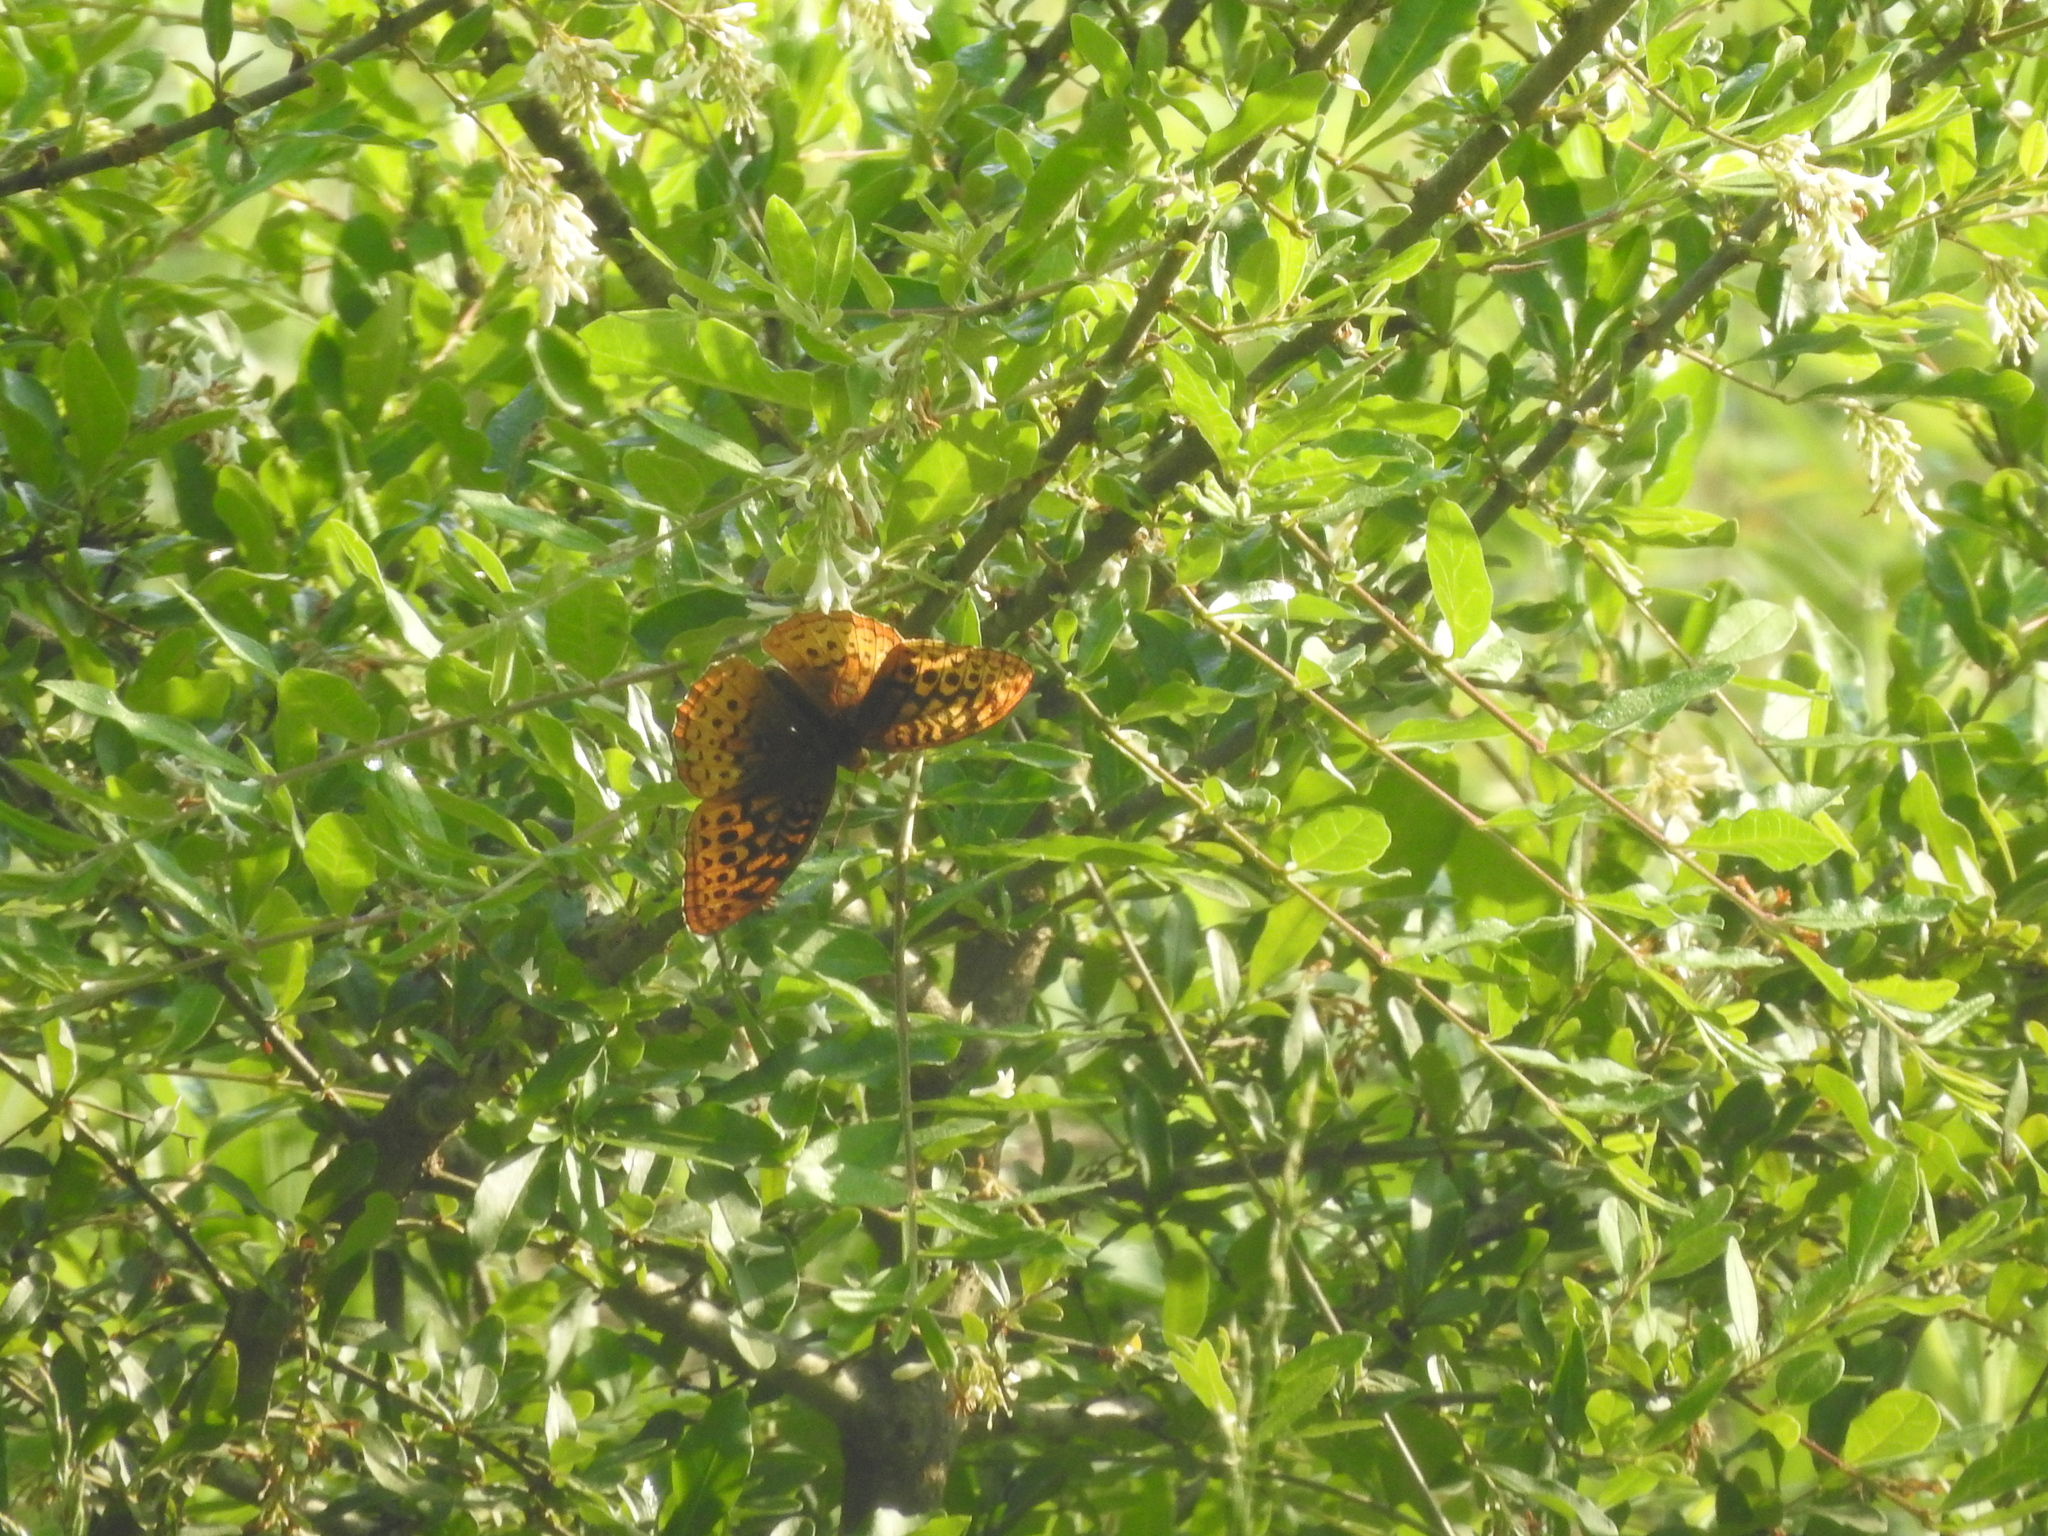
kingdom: Animalia
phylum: Arthropoda
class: Insecta
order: Lepidoptera
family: Nymphalidae
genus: Speyeria
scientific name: Speyeria cybele
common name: Great spangled fritillary
